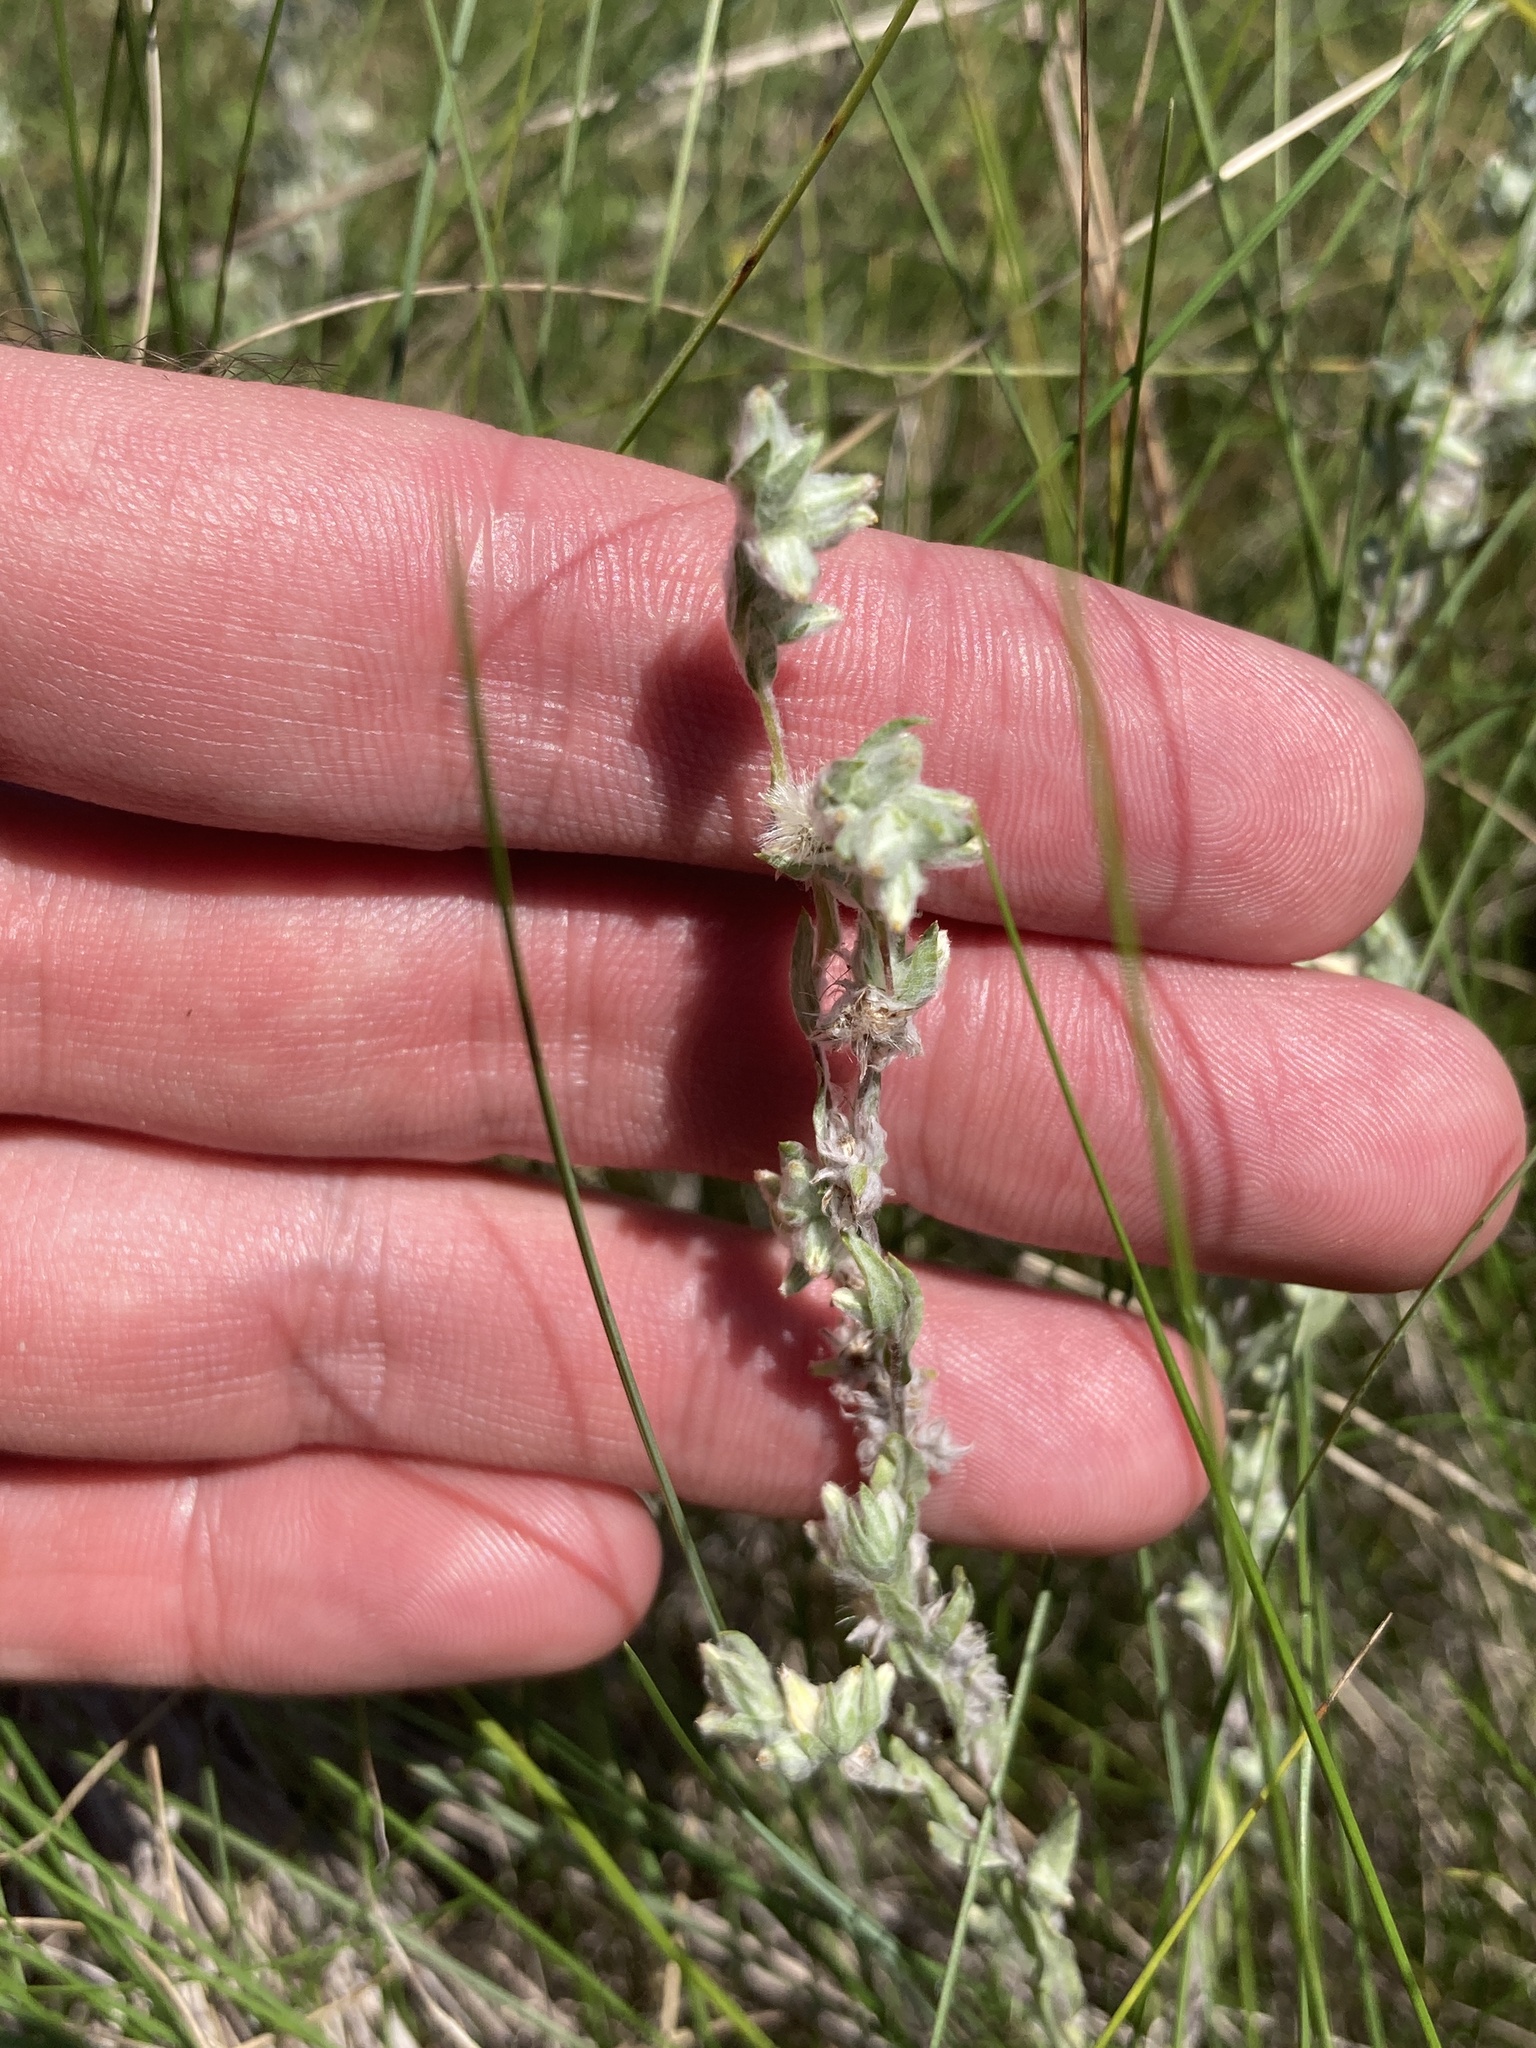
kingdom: Plantae
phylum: Tracheophyta
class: Magnoliopsida
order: Asterales
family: Asteraceae
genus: Filago
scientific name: Filago arvensis
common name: Field cudweed
